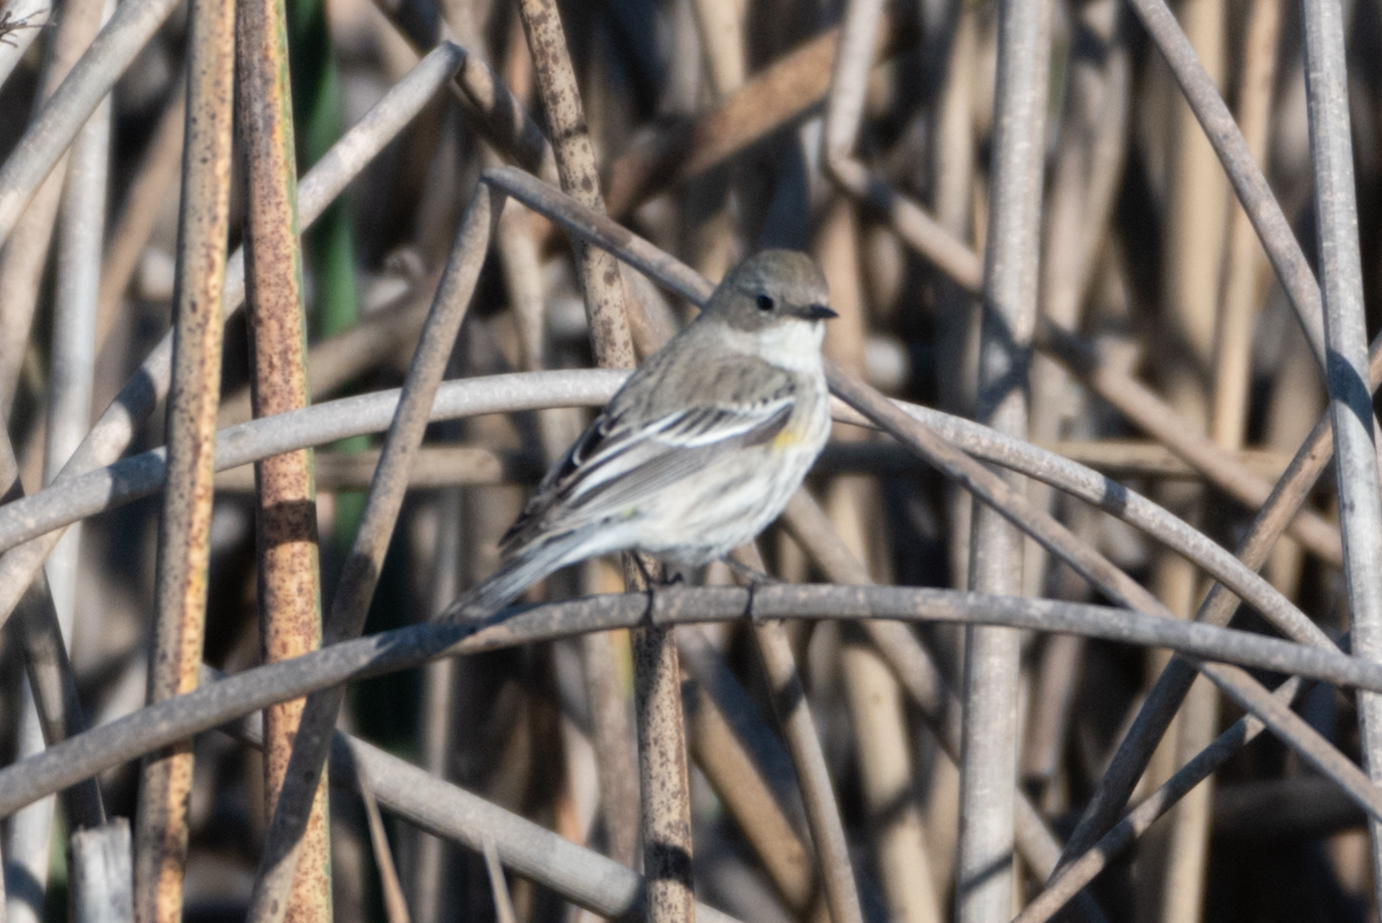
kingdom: Animalia
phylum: Chordata
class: Aves
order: Passeriformes
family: Parulidae
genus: Setophaga
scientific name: Setophaga coronata
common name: Myrtle warbler
